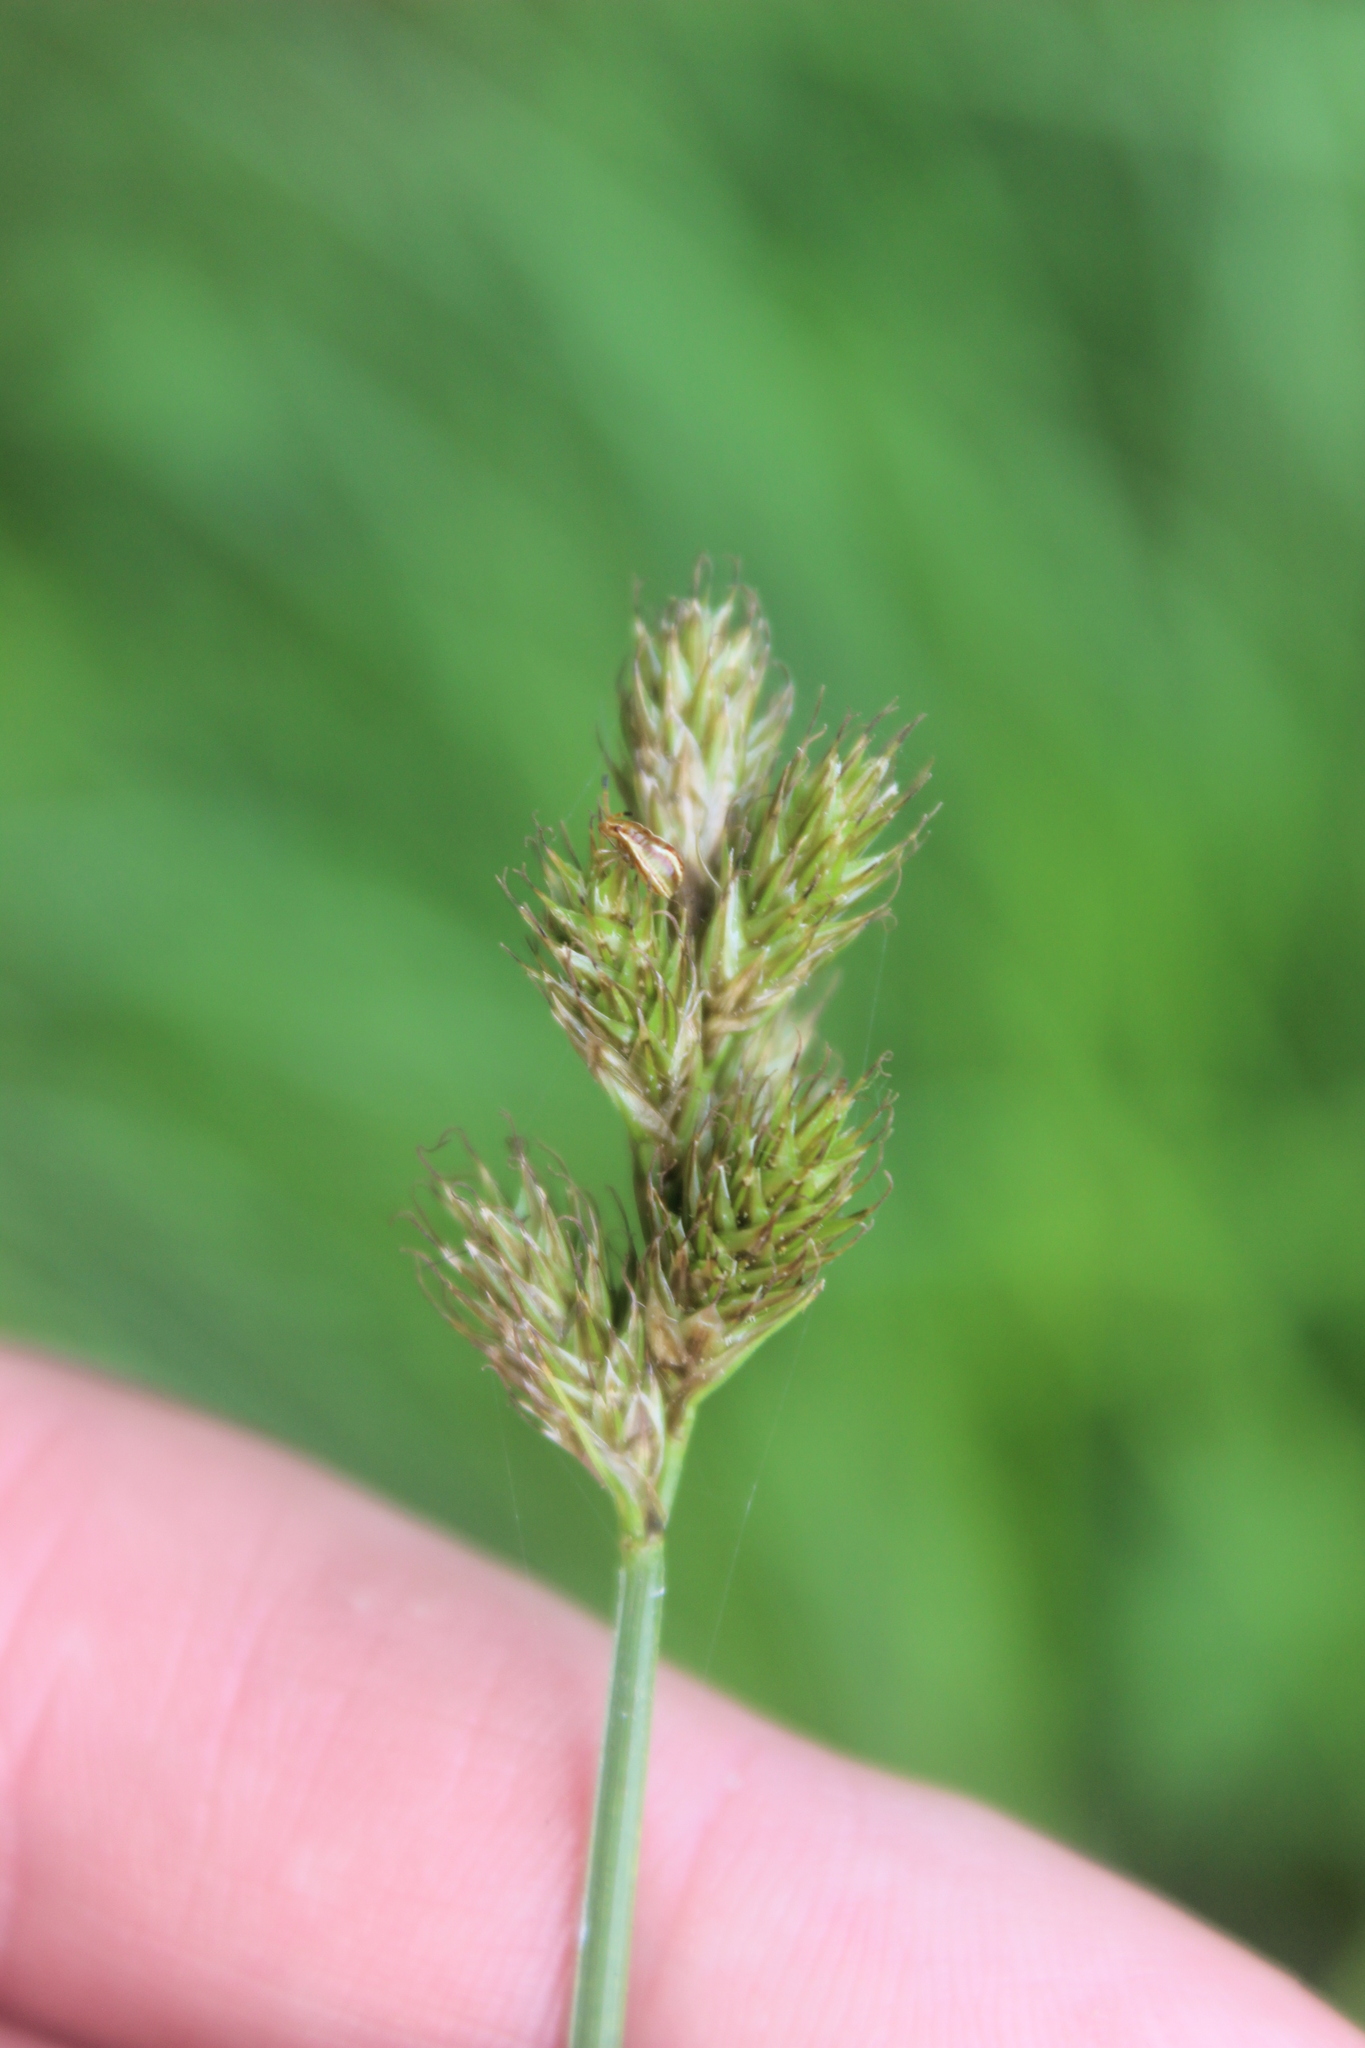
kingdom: Plantae
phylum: Tracheophyta
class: Liliopsida
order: Poales
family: Cyperaceae
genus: Carex
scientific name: Carex leporina
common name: Oval sedge
